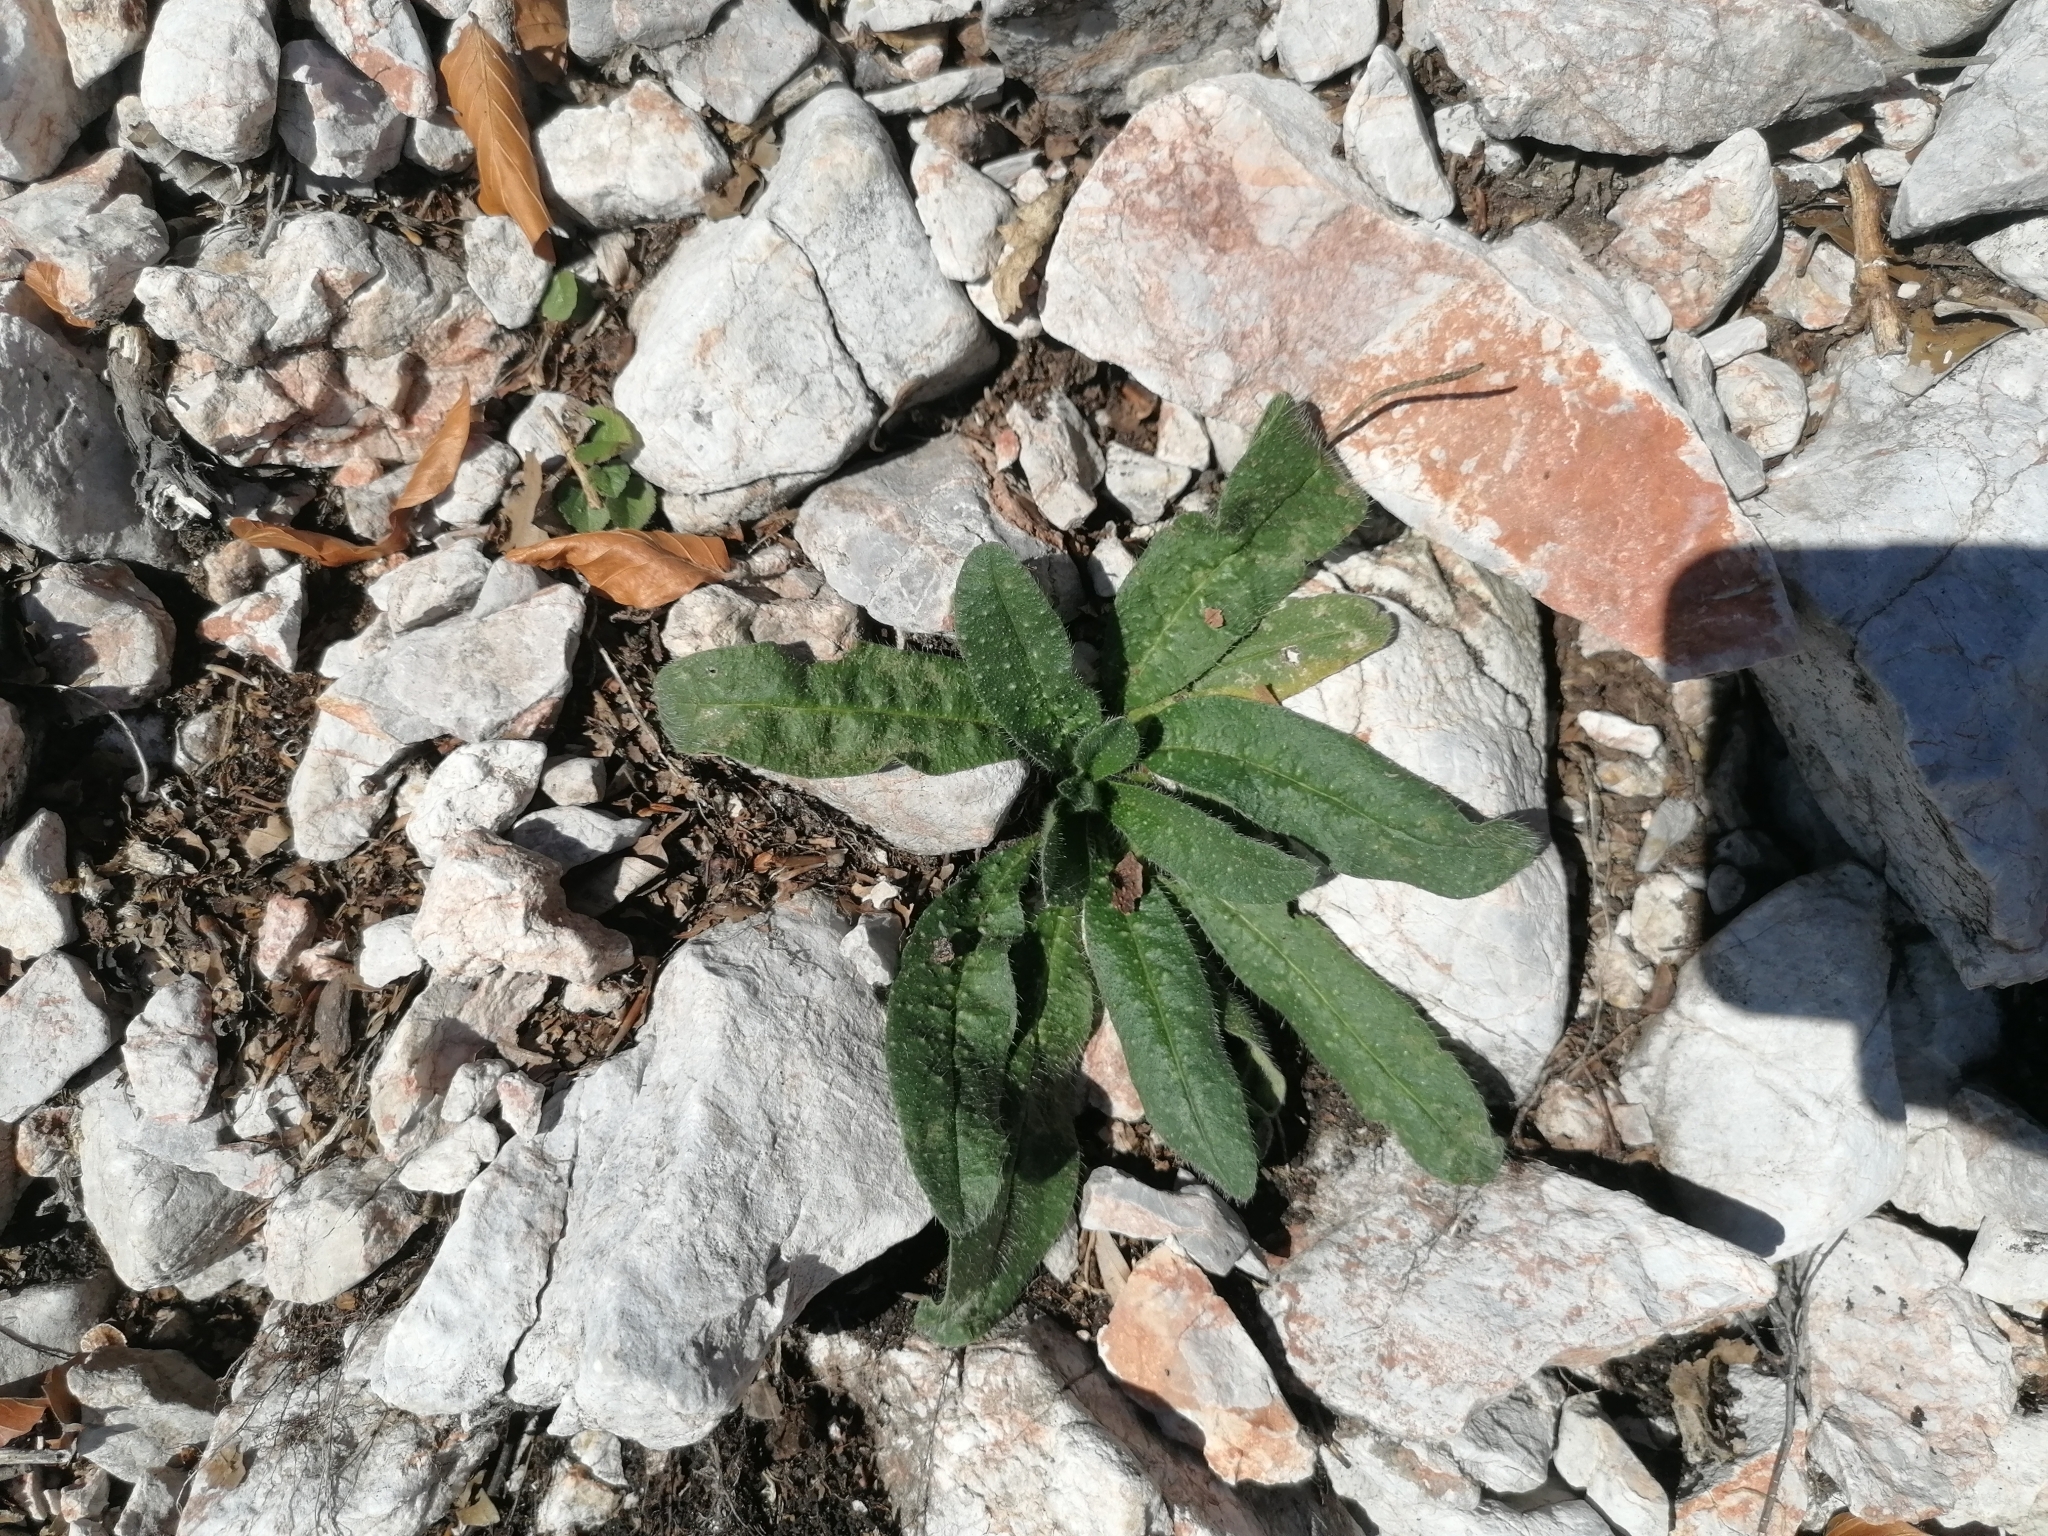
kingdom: Plantae
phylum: Tracheophyta
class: Magnoliopsida
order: Boraginales
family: Boraginaceae
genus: Echium
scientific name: Echium vulgare
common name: Common viper's bugloss
